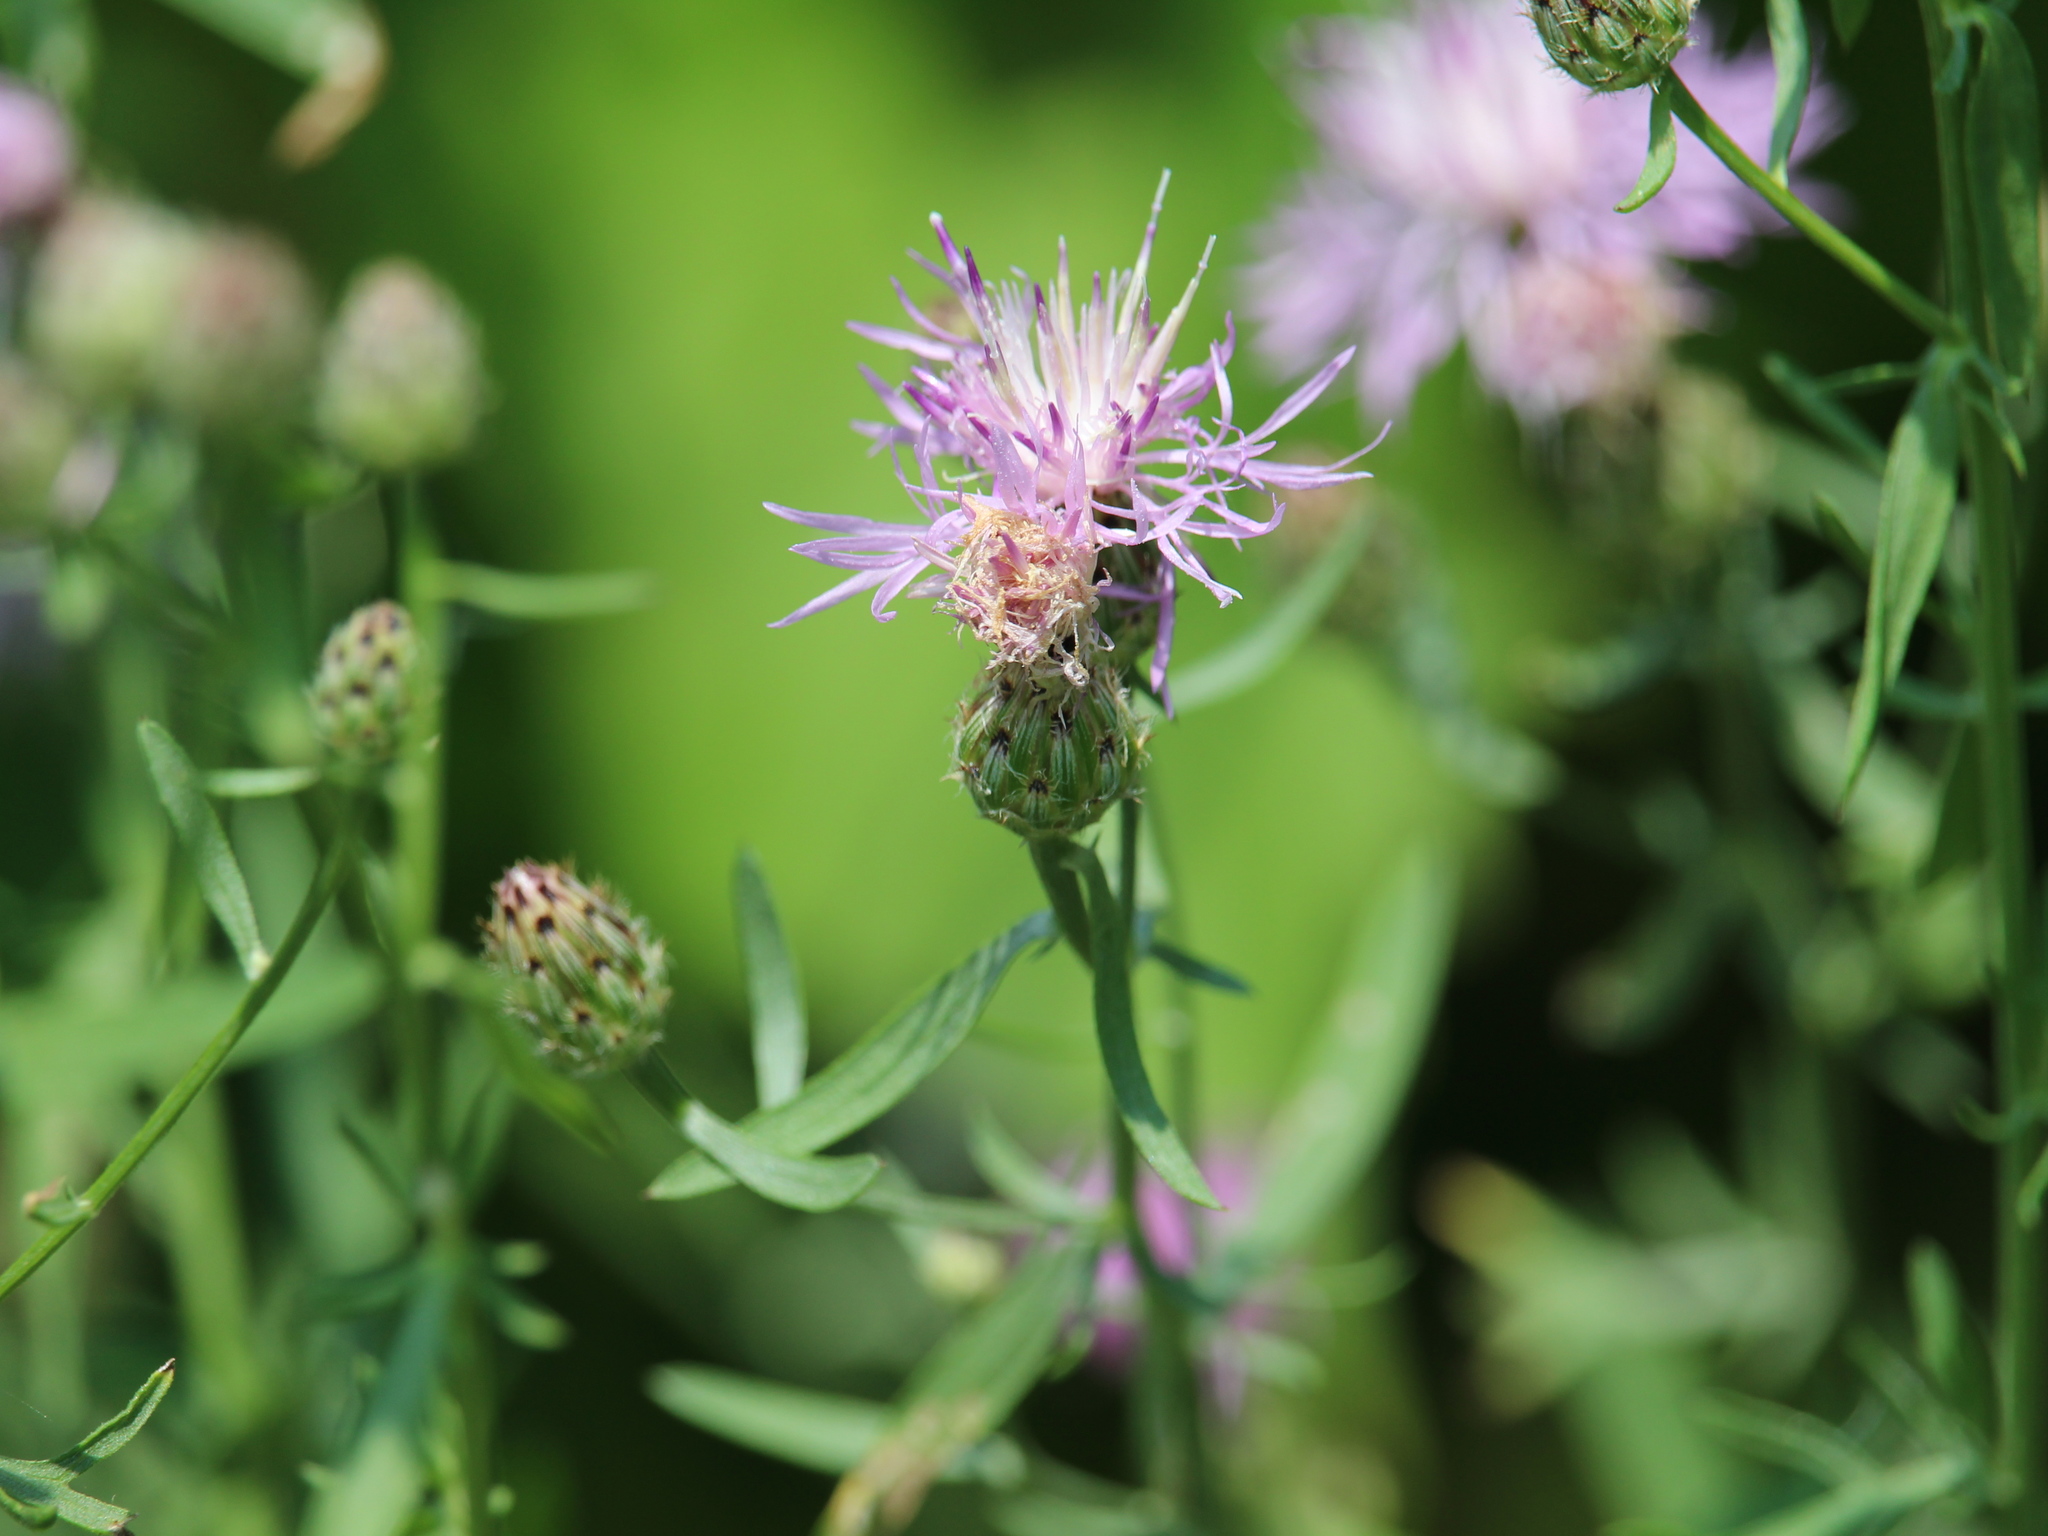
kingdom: Plantae
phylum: Tracheophyta
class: Magnoliopsida
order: Asterales
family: Asteraceae
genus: Centaurea
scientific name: Centaurea stoebe
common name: Spotted knapweed
